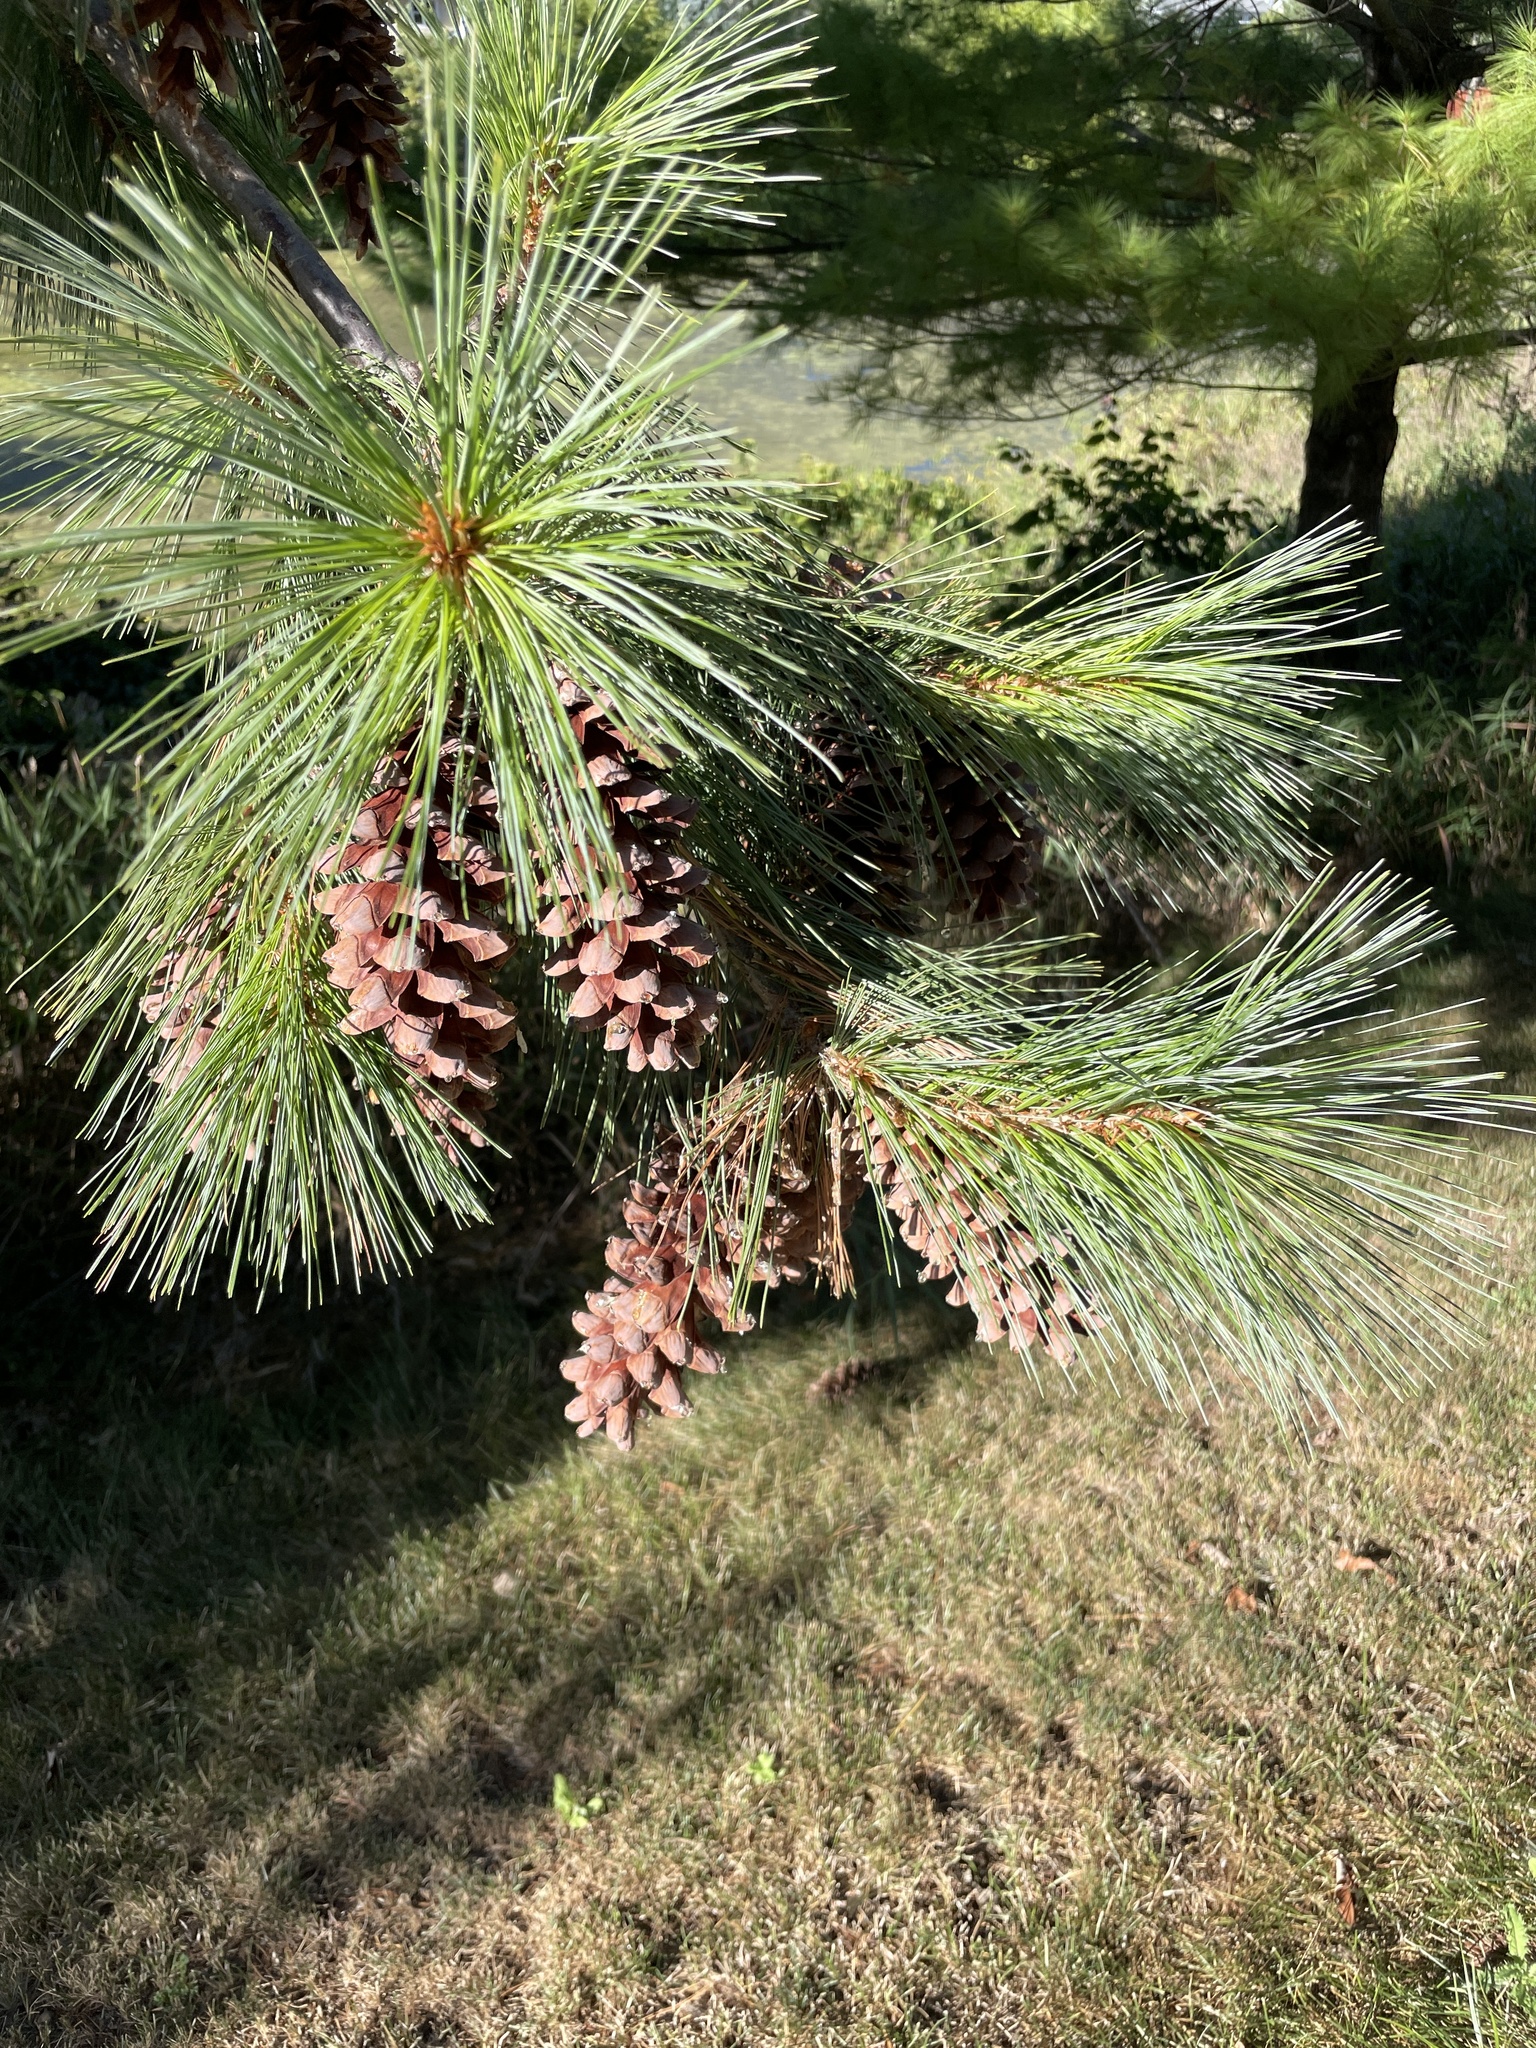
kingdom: Plantae
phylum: Tracheophyta
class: Pinopsida
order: Pinales
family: Pinaceae
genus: Pinus
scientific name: Pinus strobus
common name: Weymouth pine
